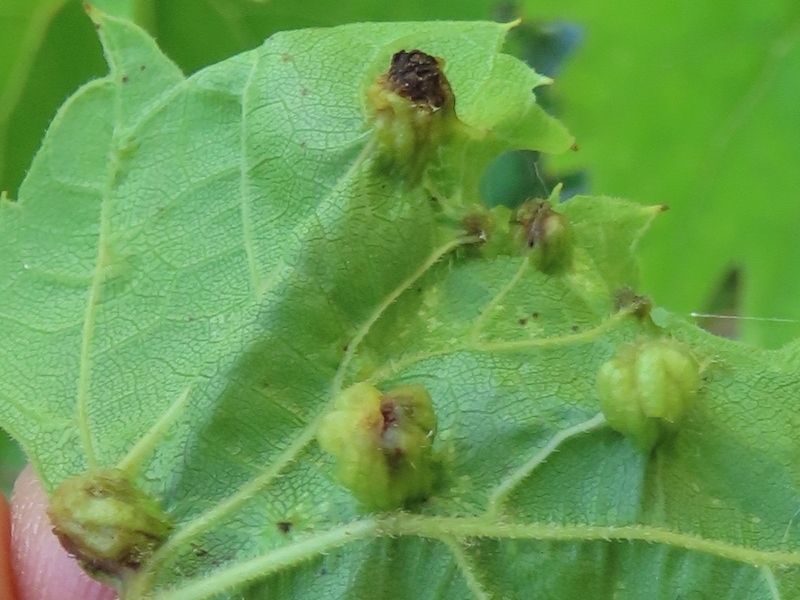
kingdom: Animalia
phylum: Arthropoda
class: Insecta
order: Hemiptera
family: Phylloxeridae
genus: Daktulosphaira
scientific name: Daktulosphaira vitifoliae
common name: Grape phylloxera
